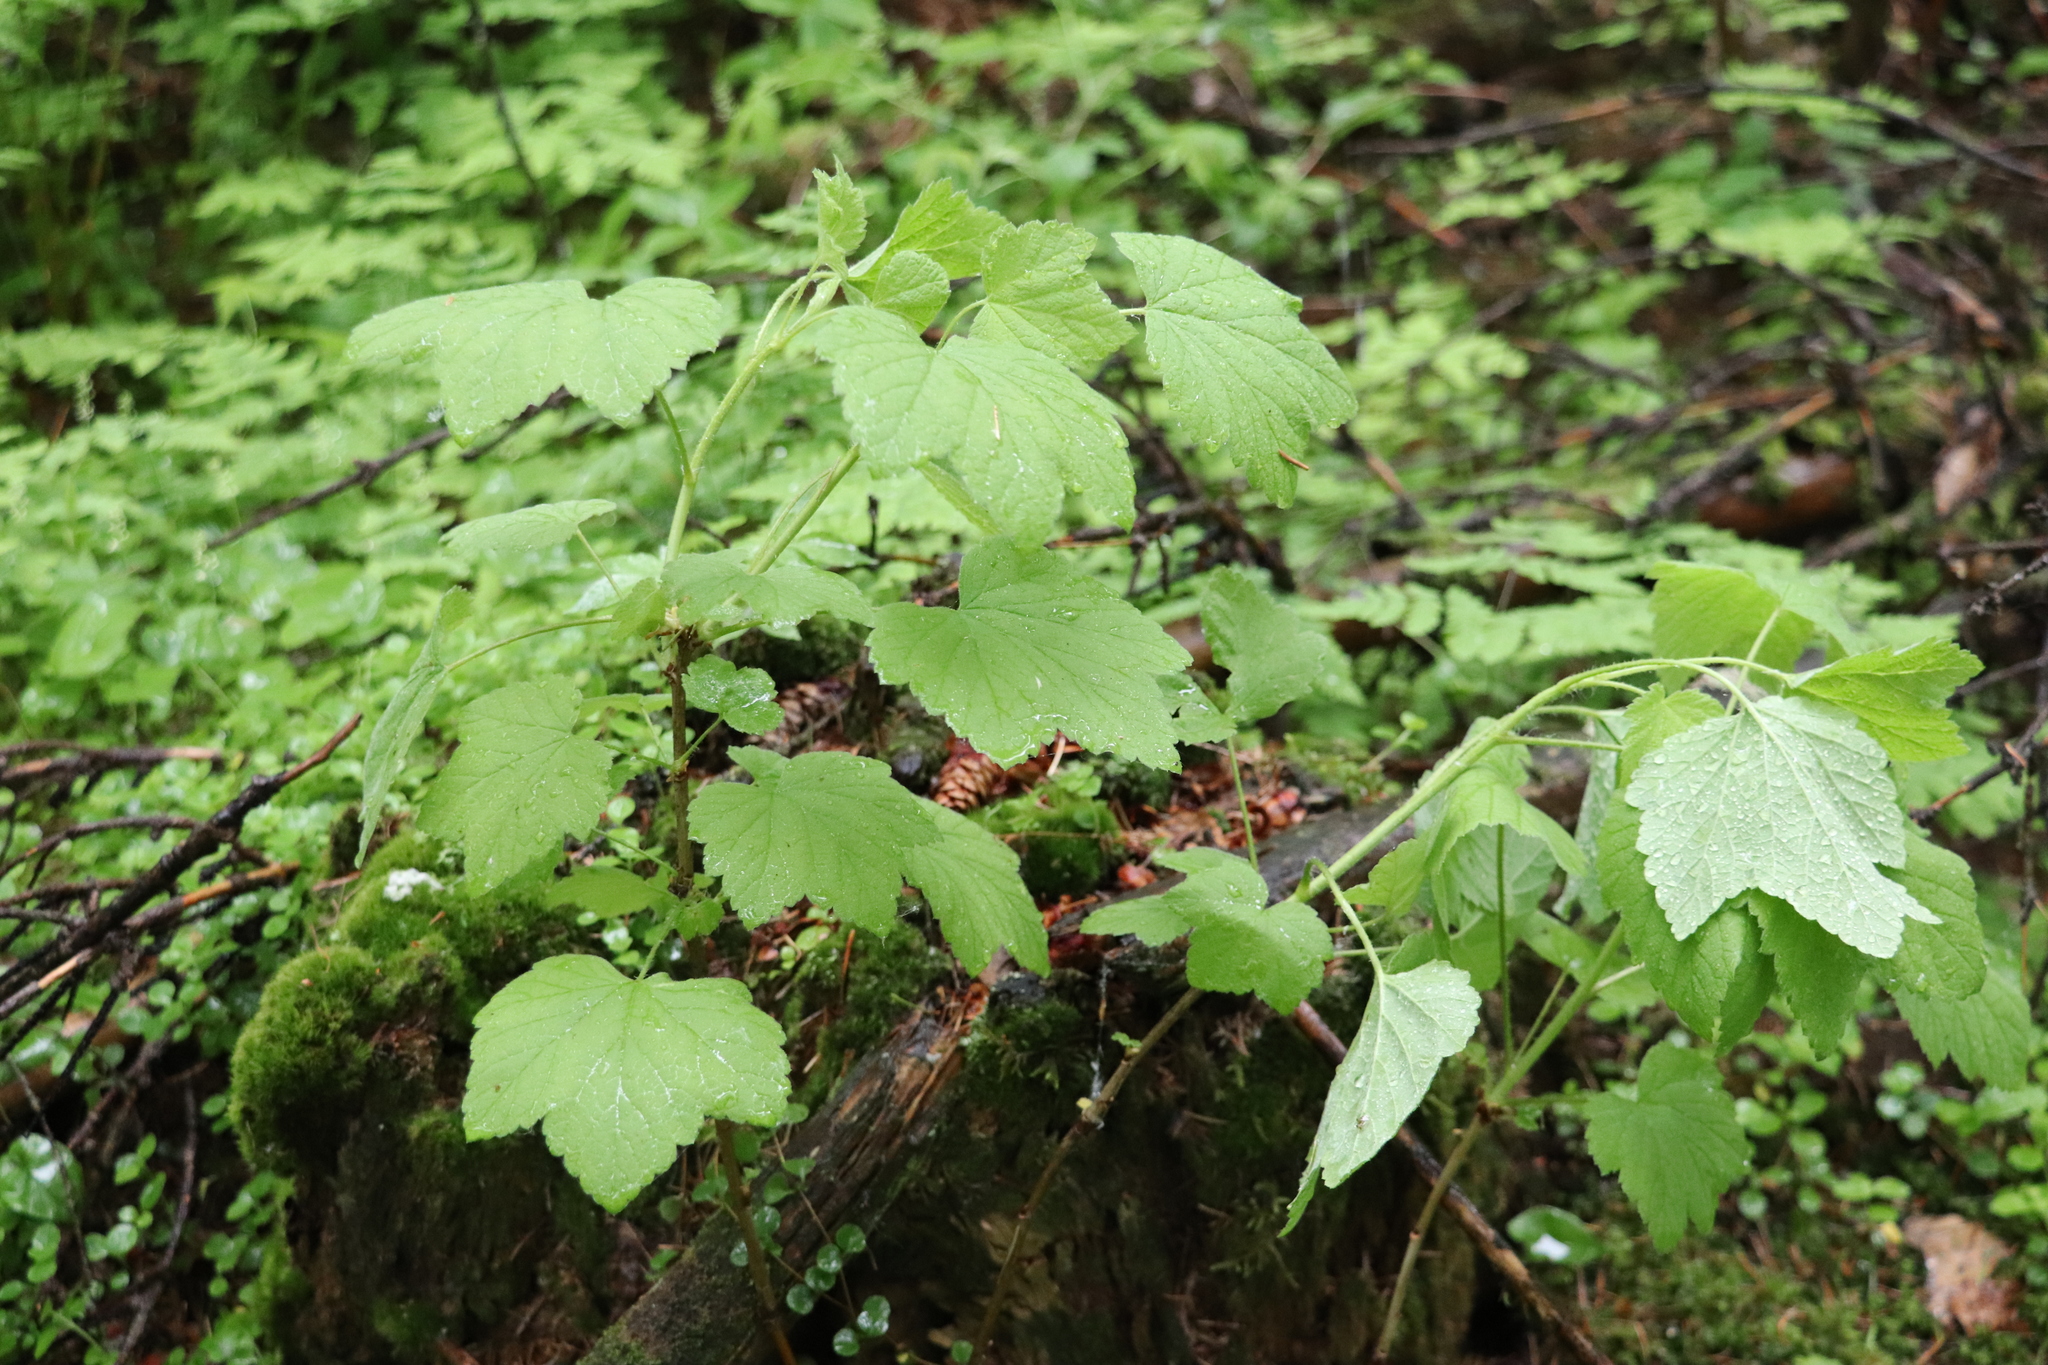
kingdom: Plantae
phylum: Tracheophyta
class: Magnoliopsida
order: Saxifragales
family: Grossulariaceae
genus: Ribes
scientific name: Ribes spicatum
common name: Downy currant
